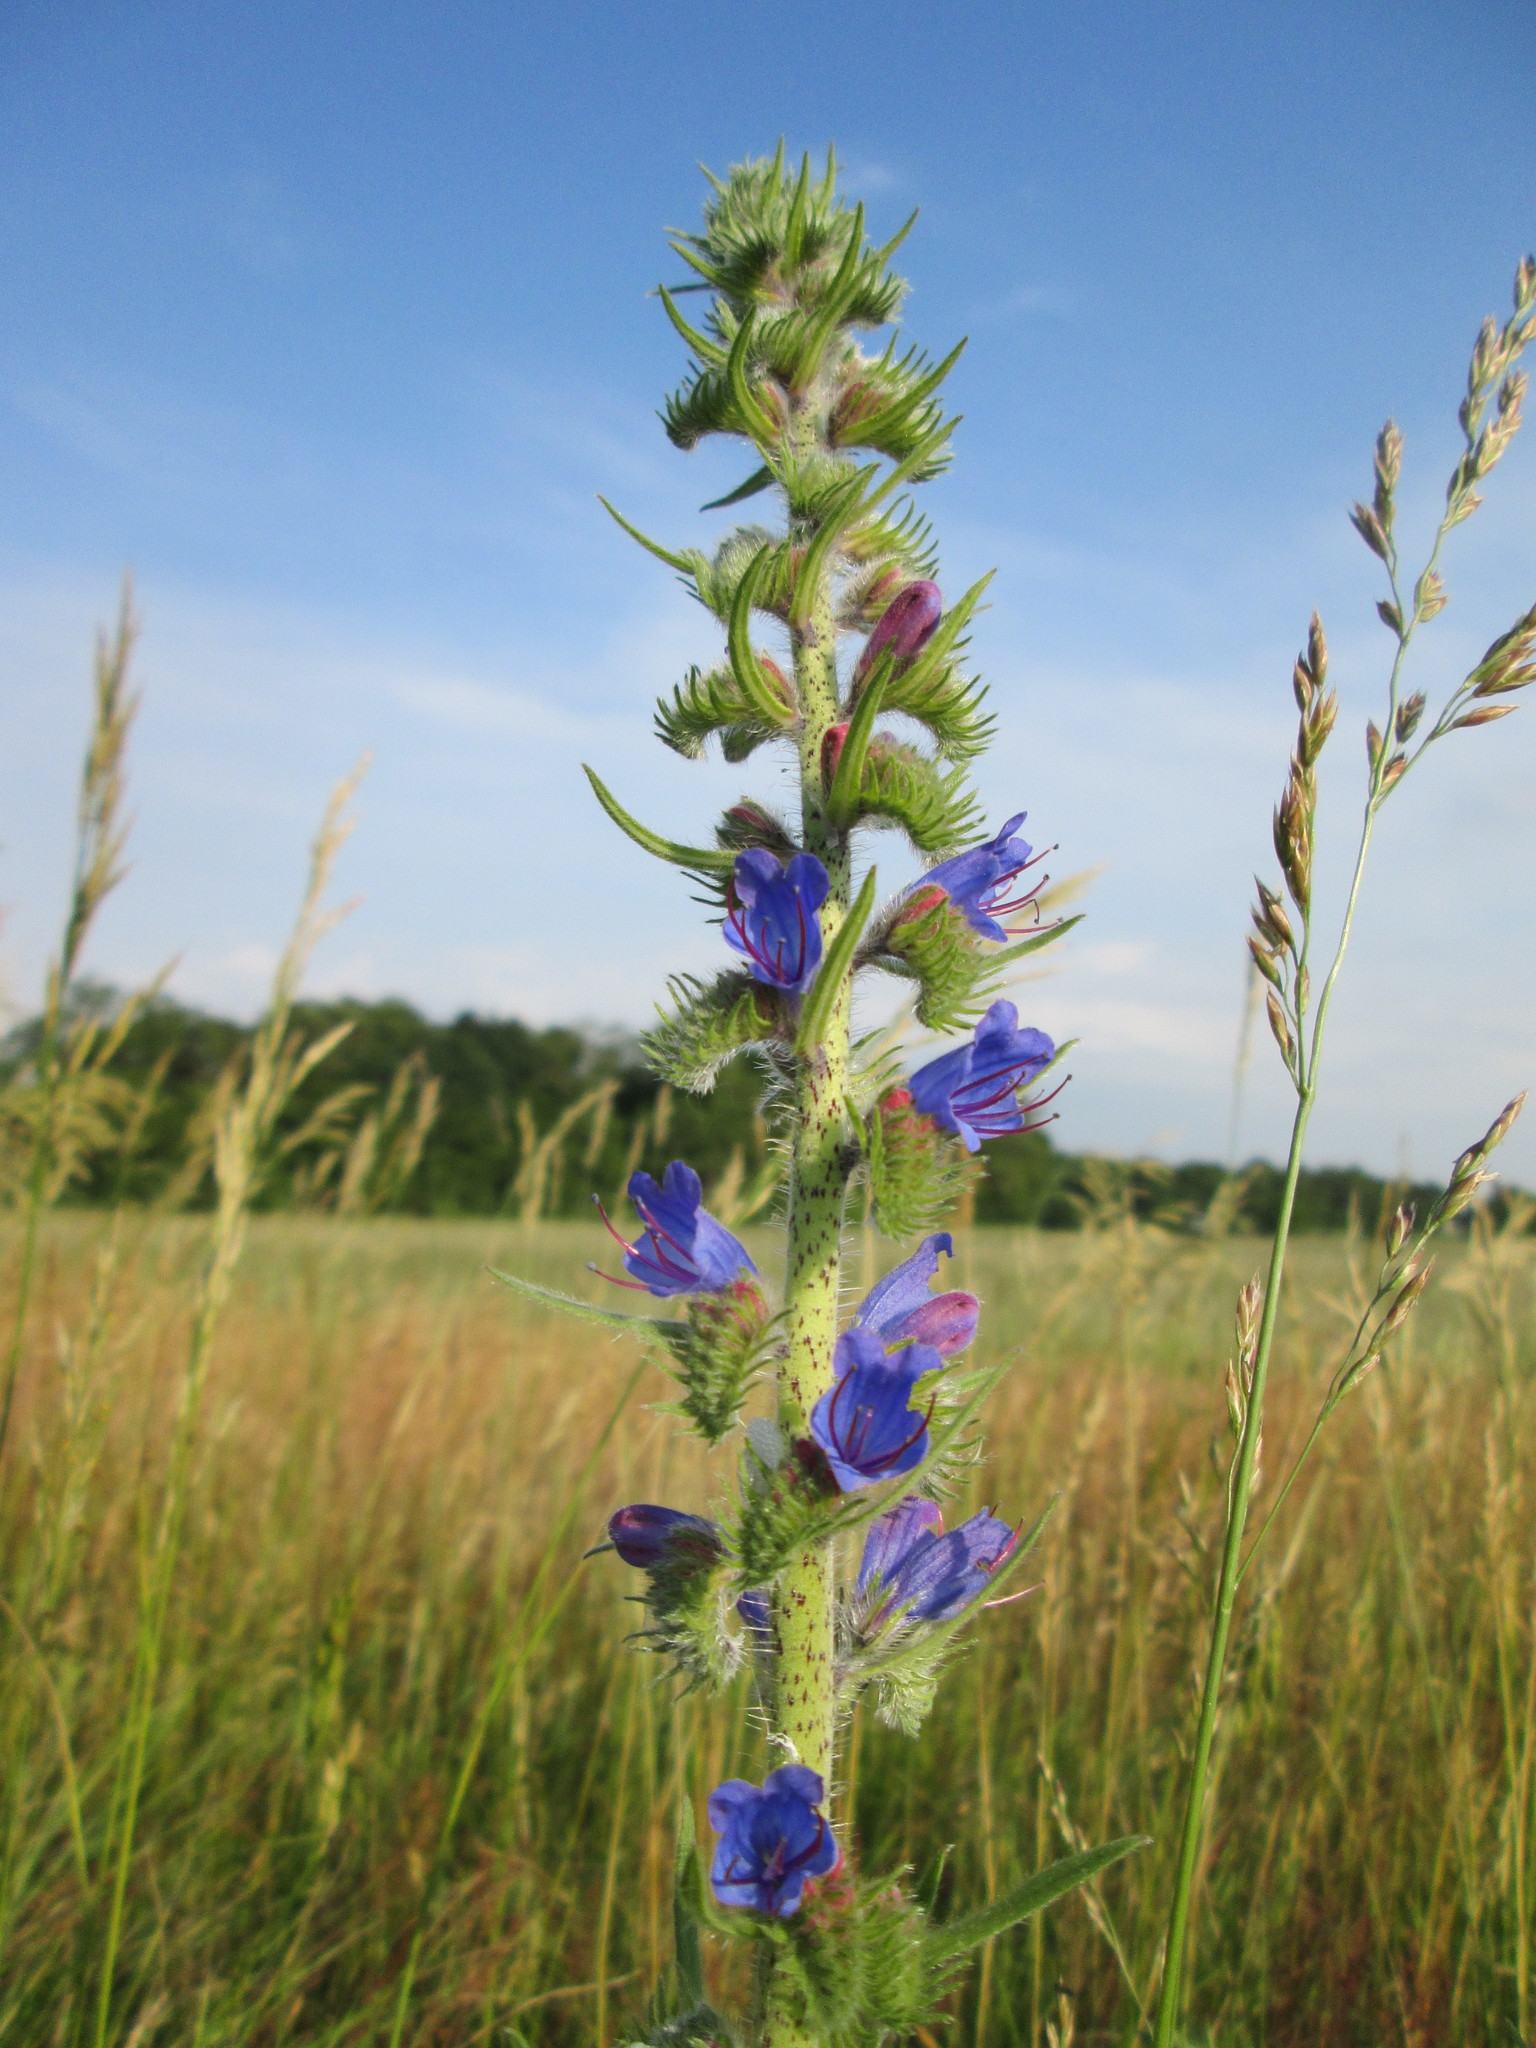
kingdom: Plantae
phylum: Tracheophyta
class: Magnoliopsida
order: Boraginales
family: Boraginaceae
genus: Echium
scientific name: Echium vulgare
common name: Common viper's bugloss
